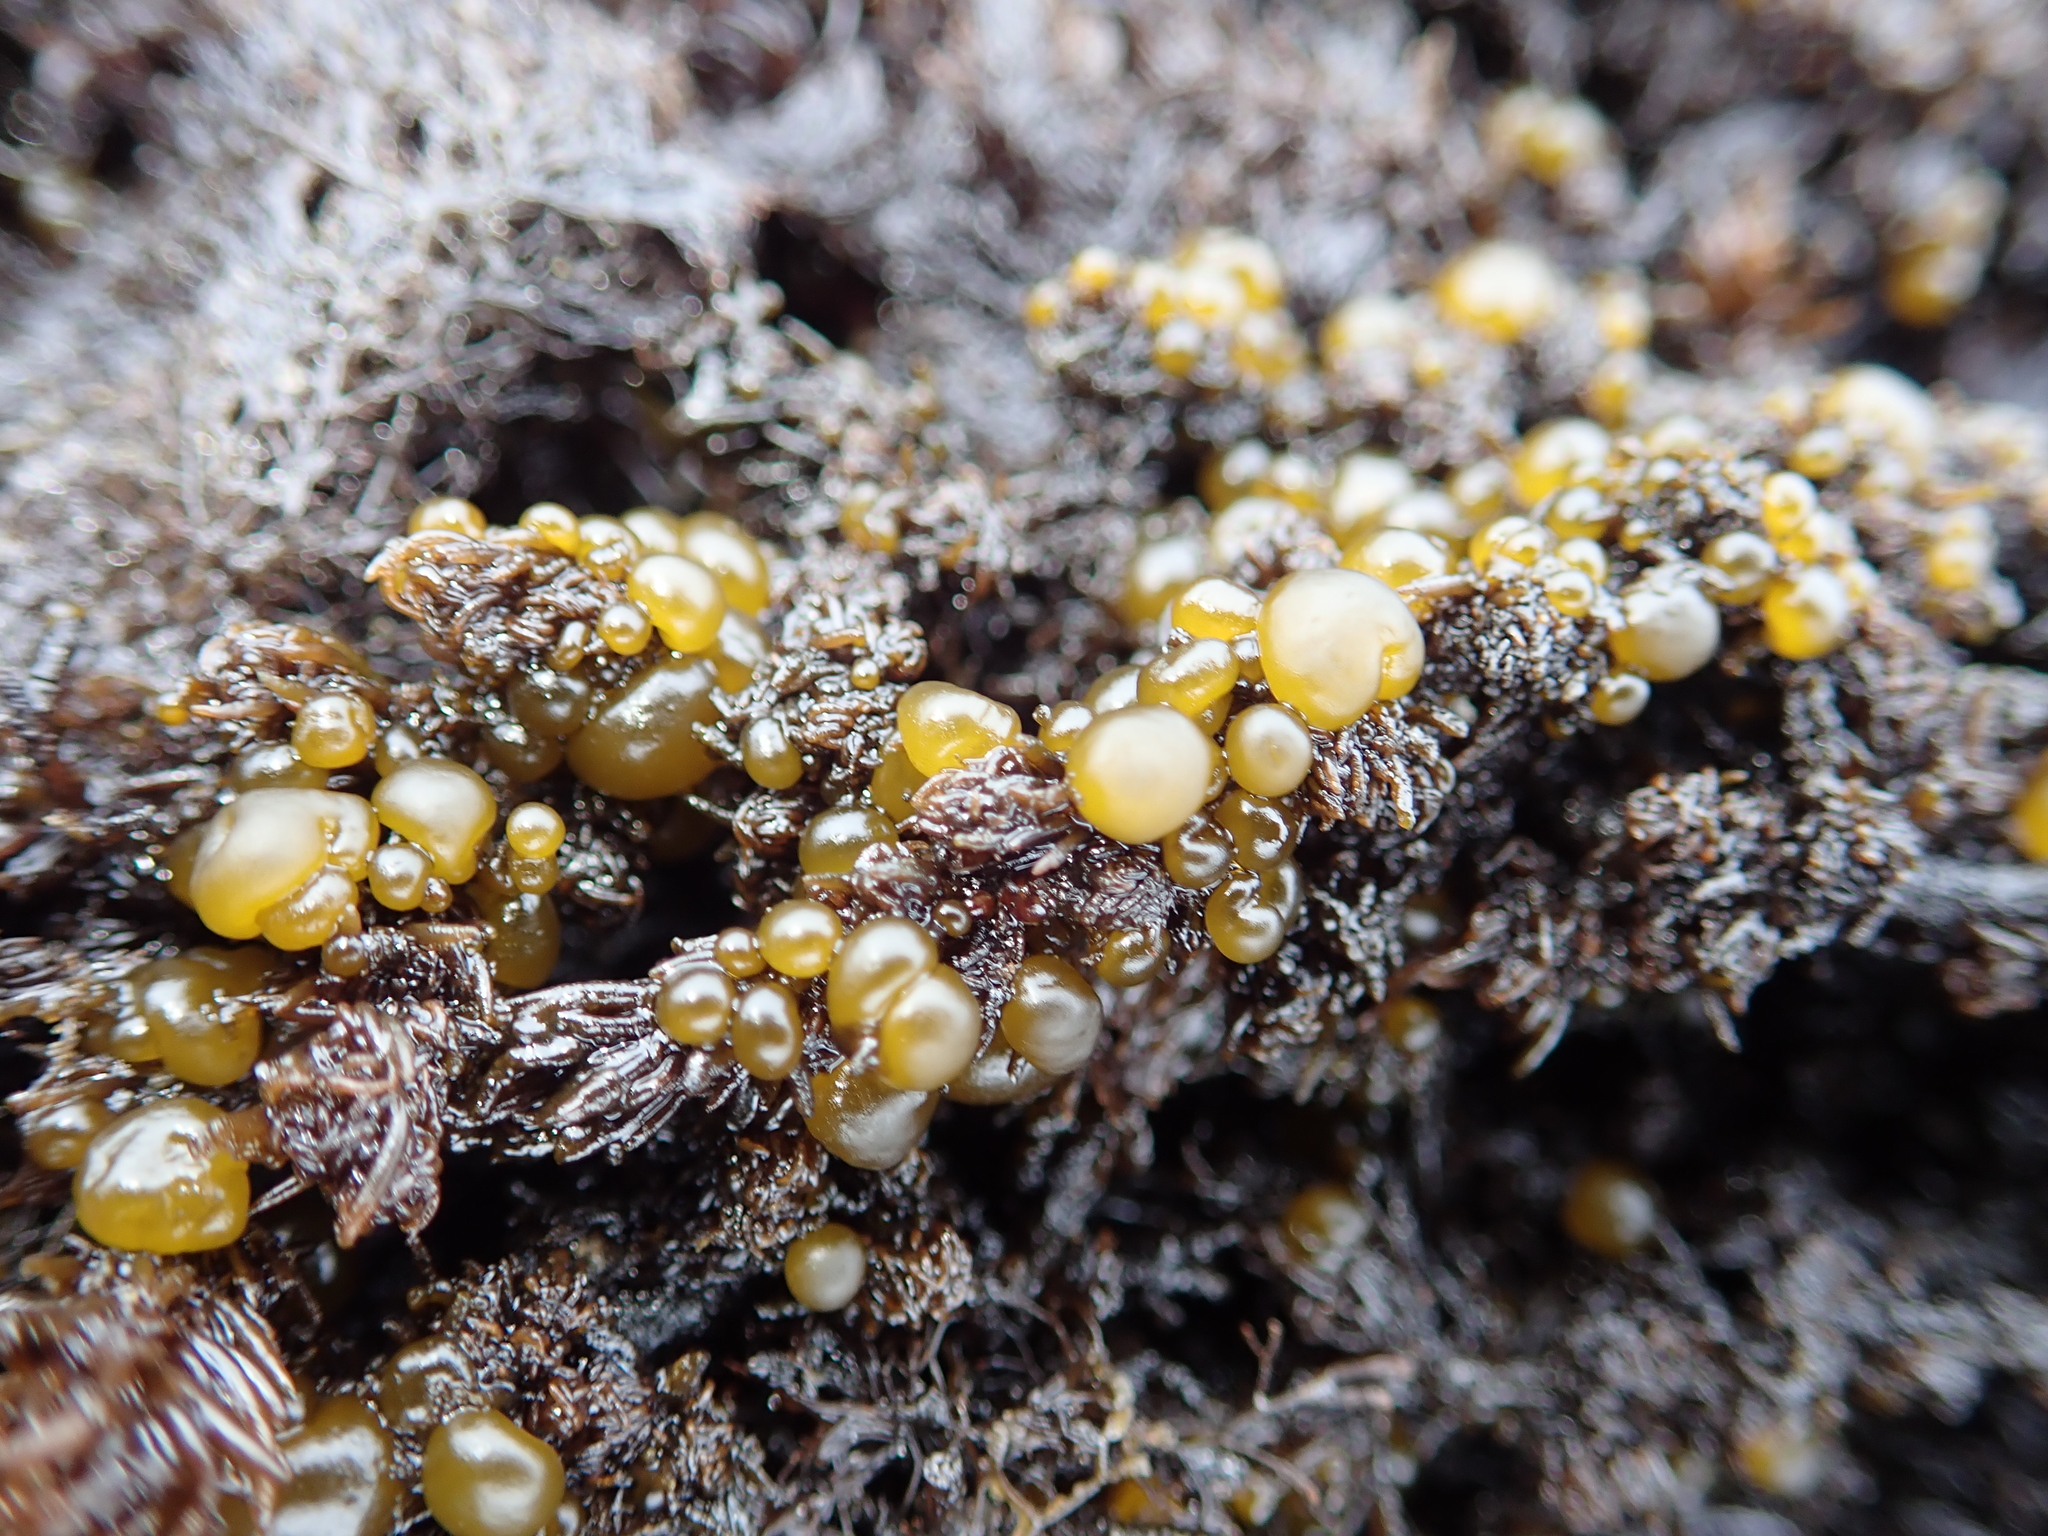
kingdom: Chromista
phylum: Ochrophyta
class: Phaeophyceae
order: Scytosiphonales
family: Scytosiphonaceae
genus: Colpomenia
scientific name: Colpomenia peregrina
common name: Oyster thief
